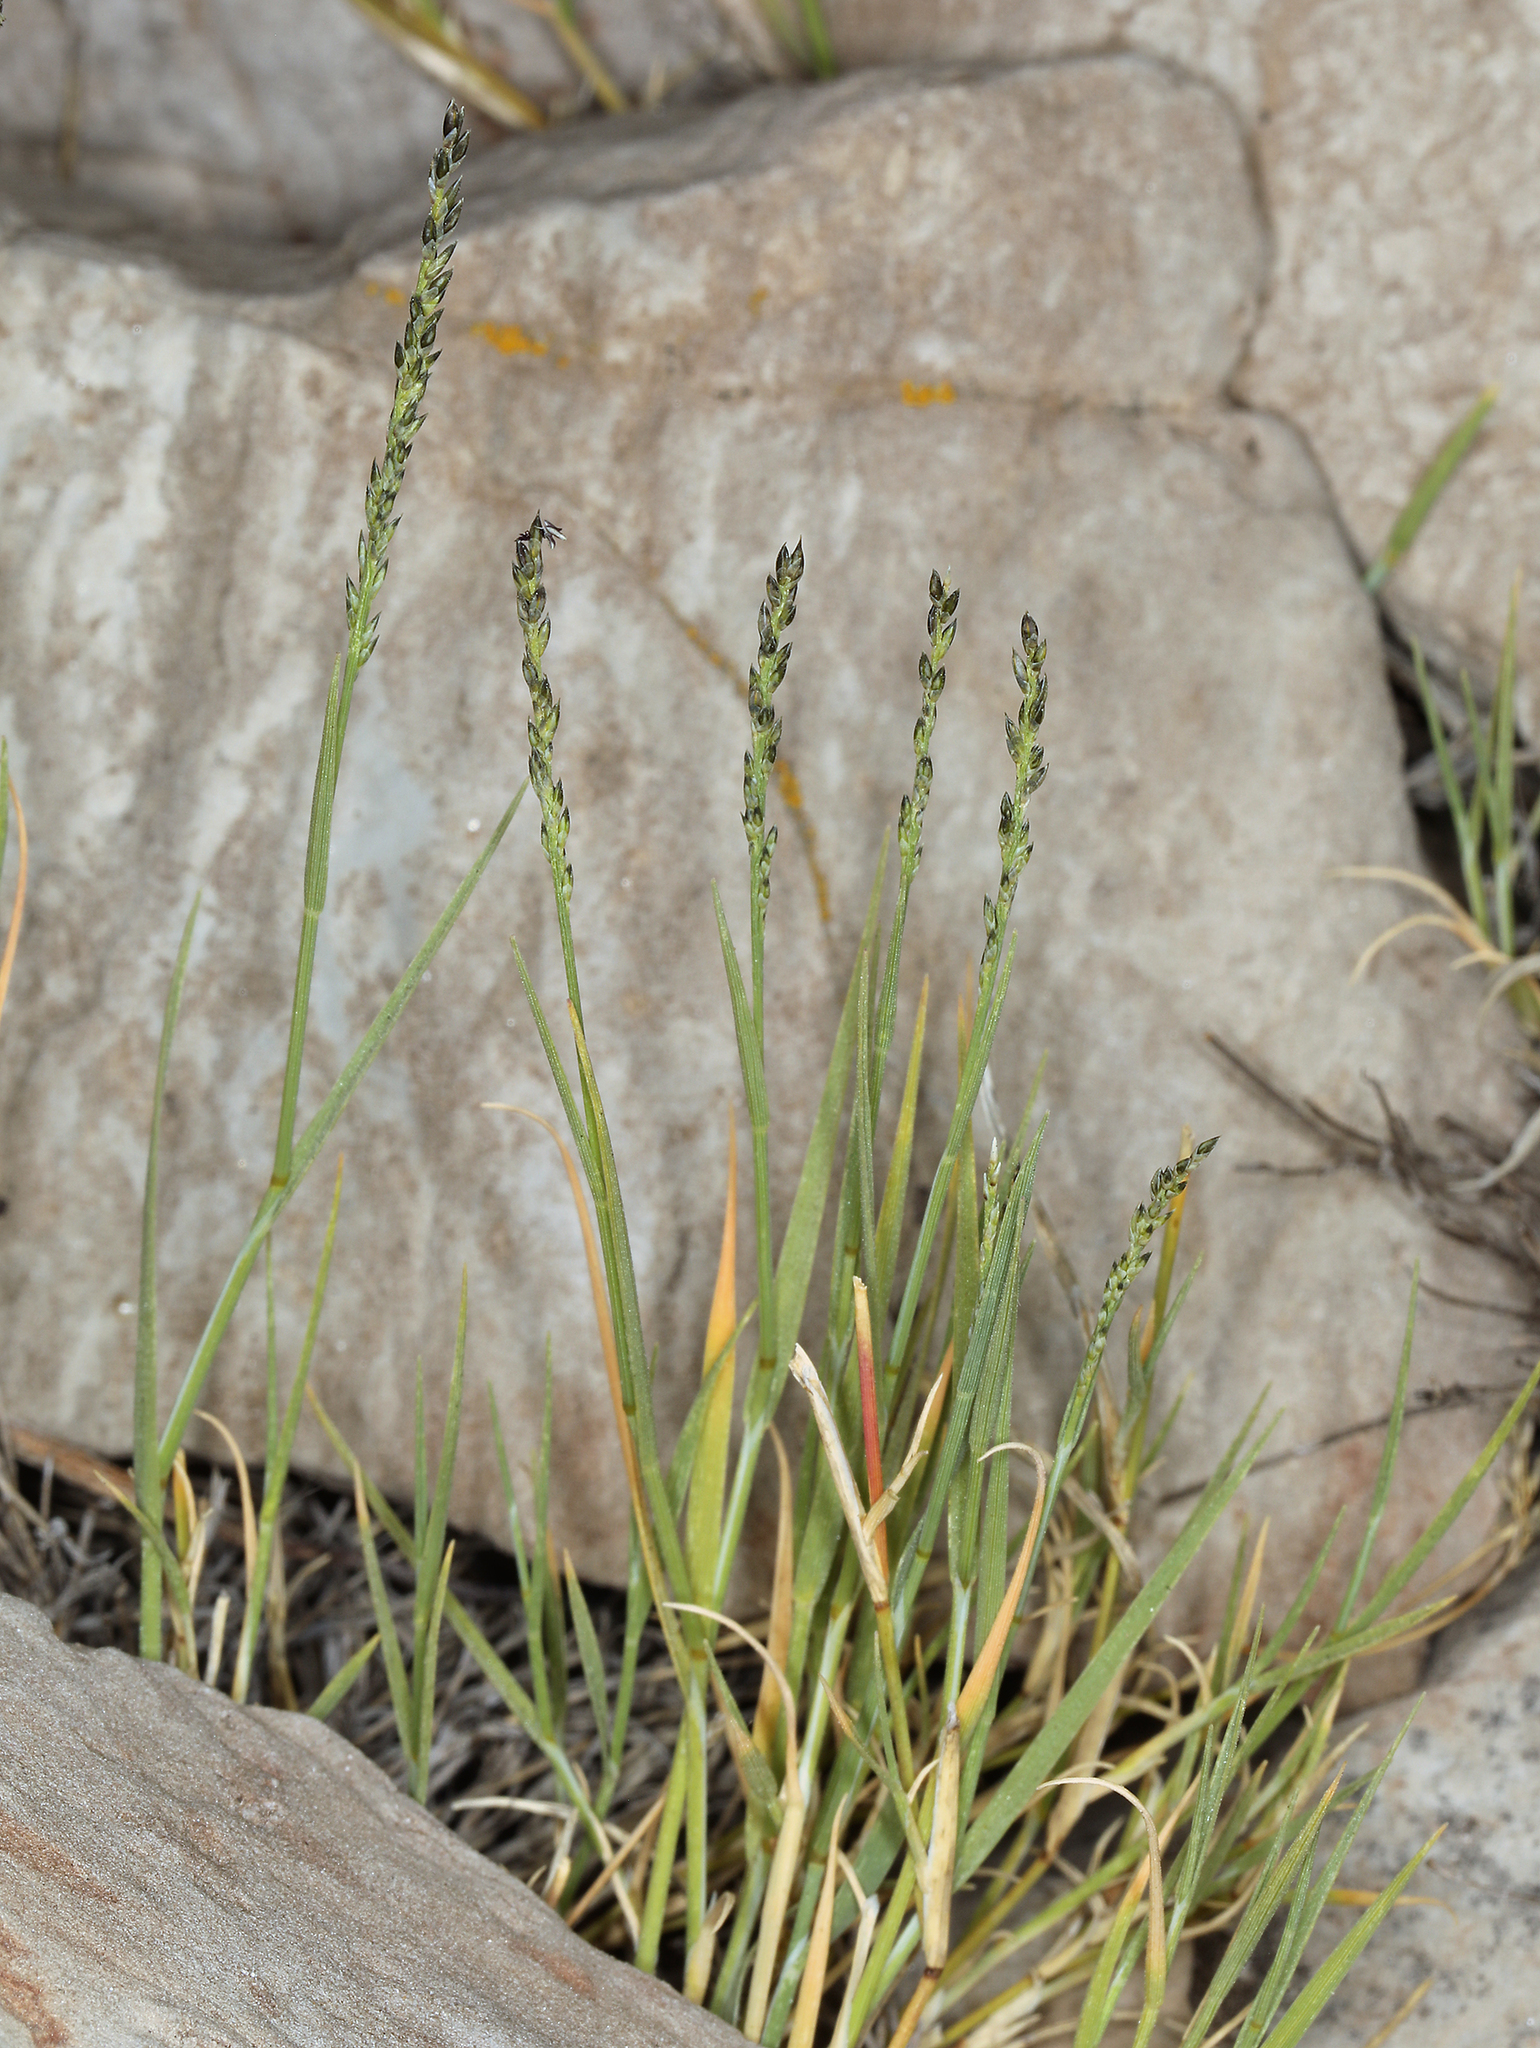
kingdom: Plantae
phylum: Tracheophyta
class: Liliopsida
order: Poales
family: Poaceae
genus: Muhlenbergia
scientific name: Muhlenbergia richardsonis
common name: Mat muhly
